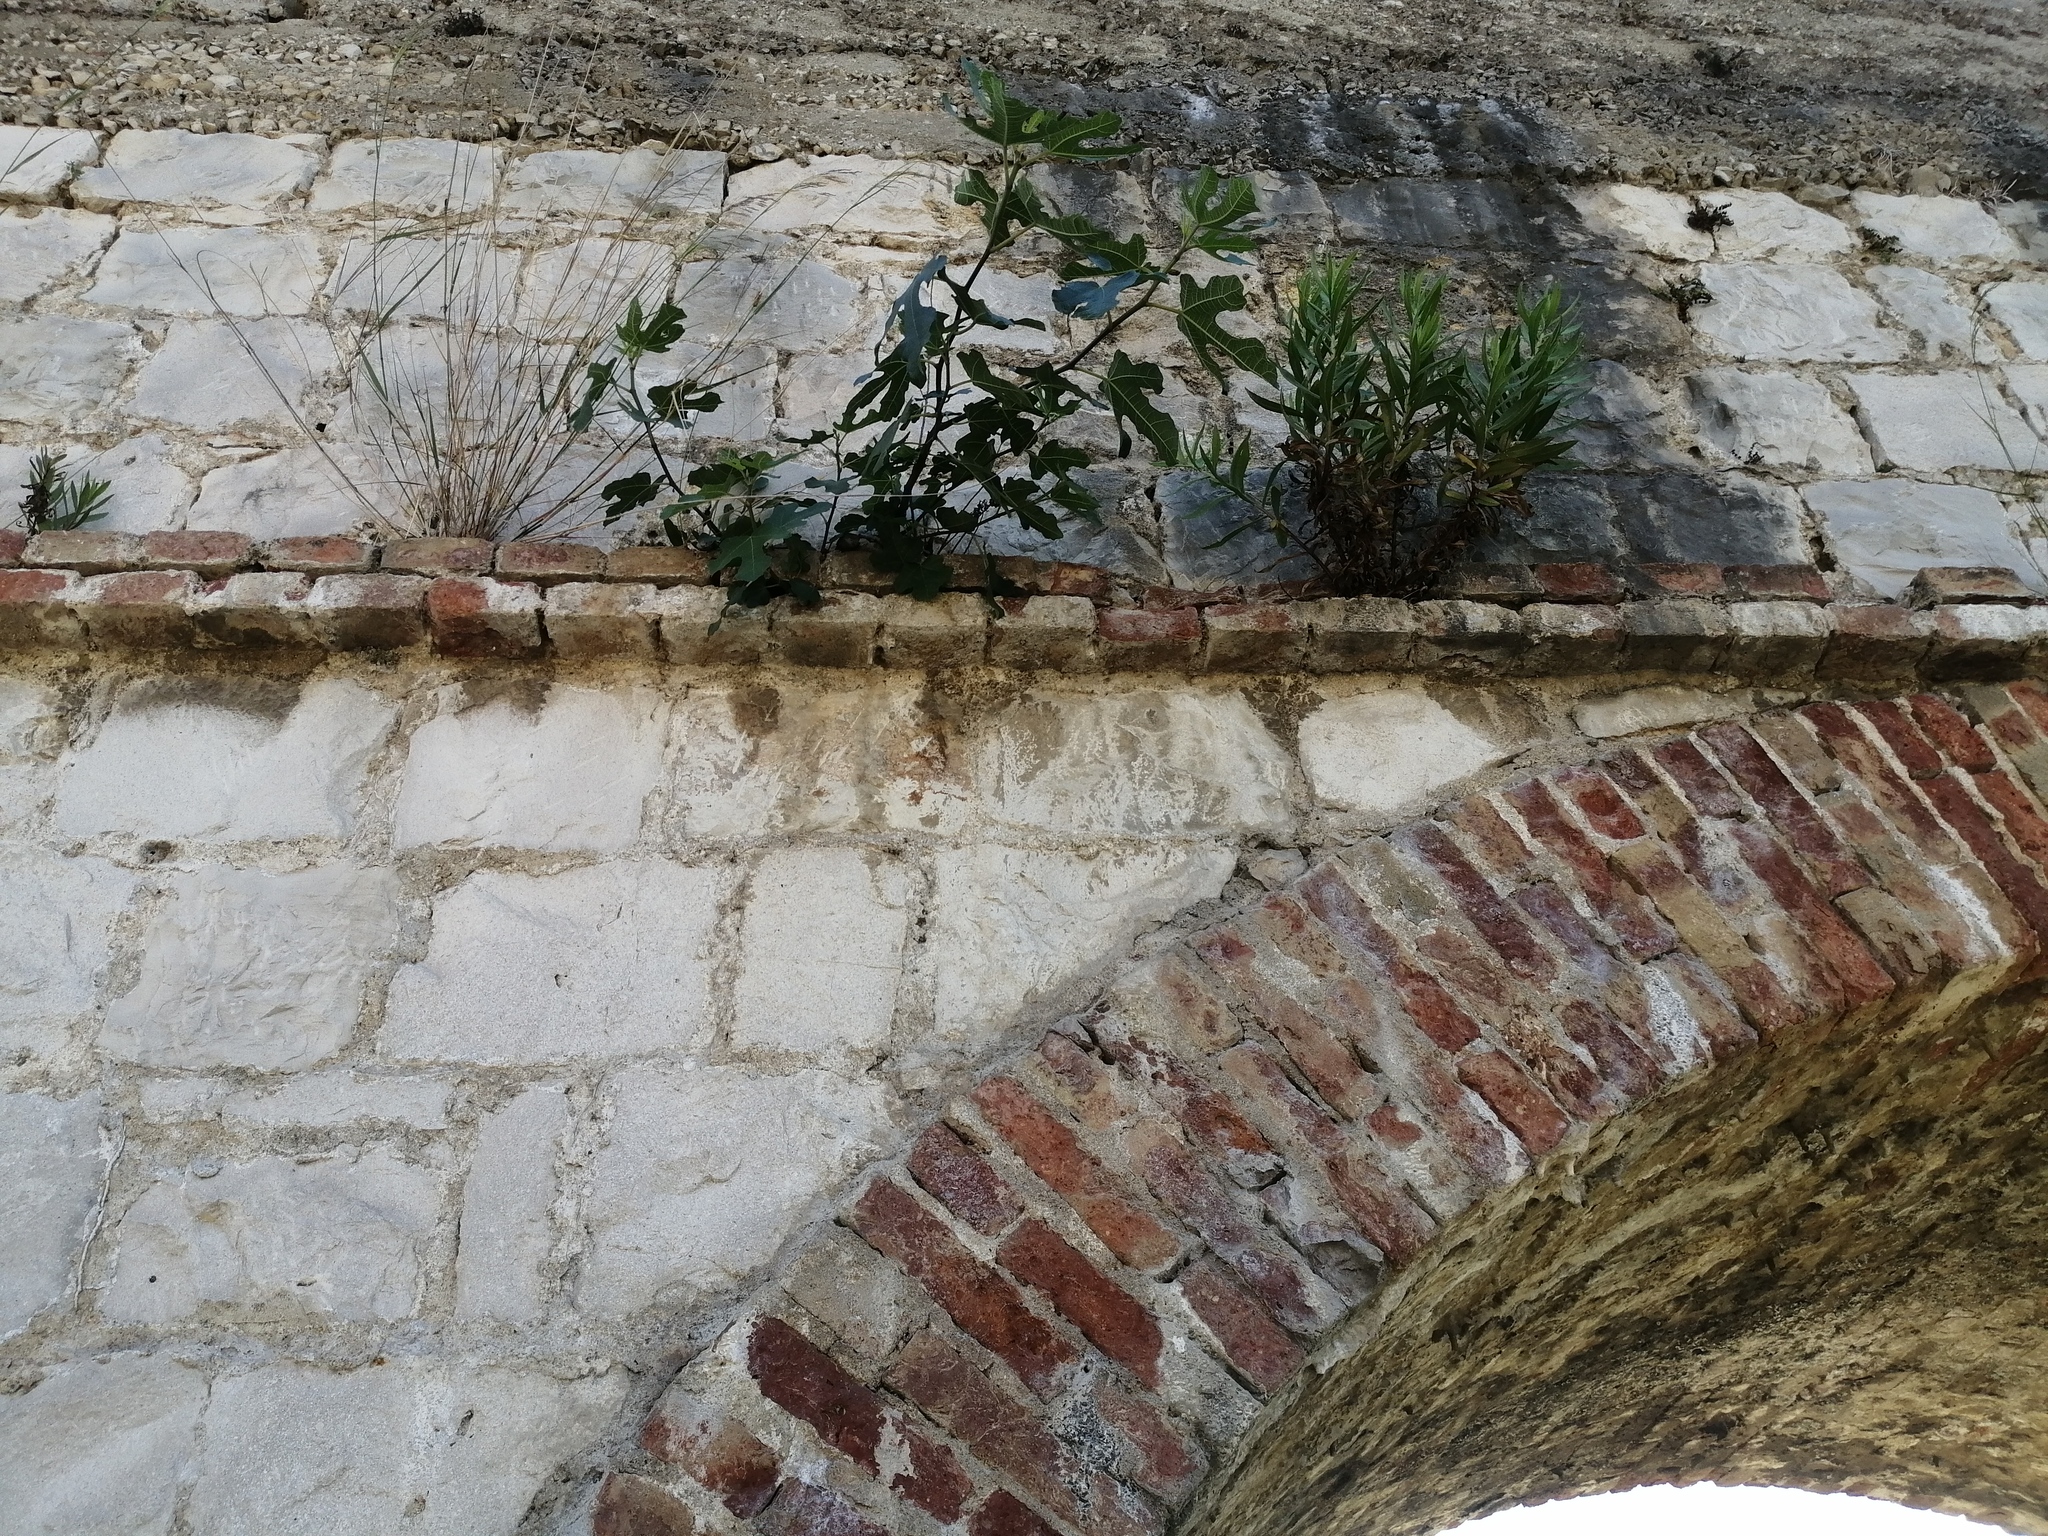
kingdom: Plantae
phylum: Tracheophyta
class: Magnoliopsida
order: Rosales
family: Moraceae
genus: Ficus
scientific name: Ficus carica
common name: Fig
